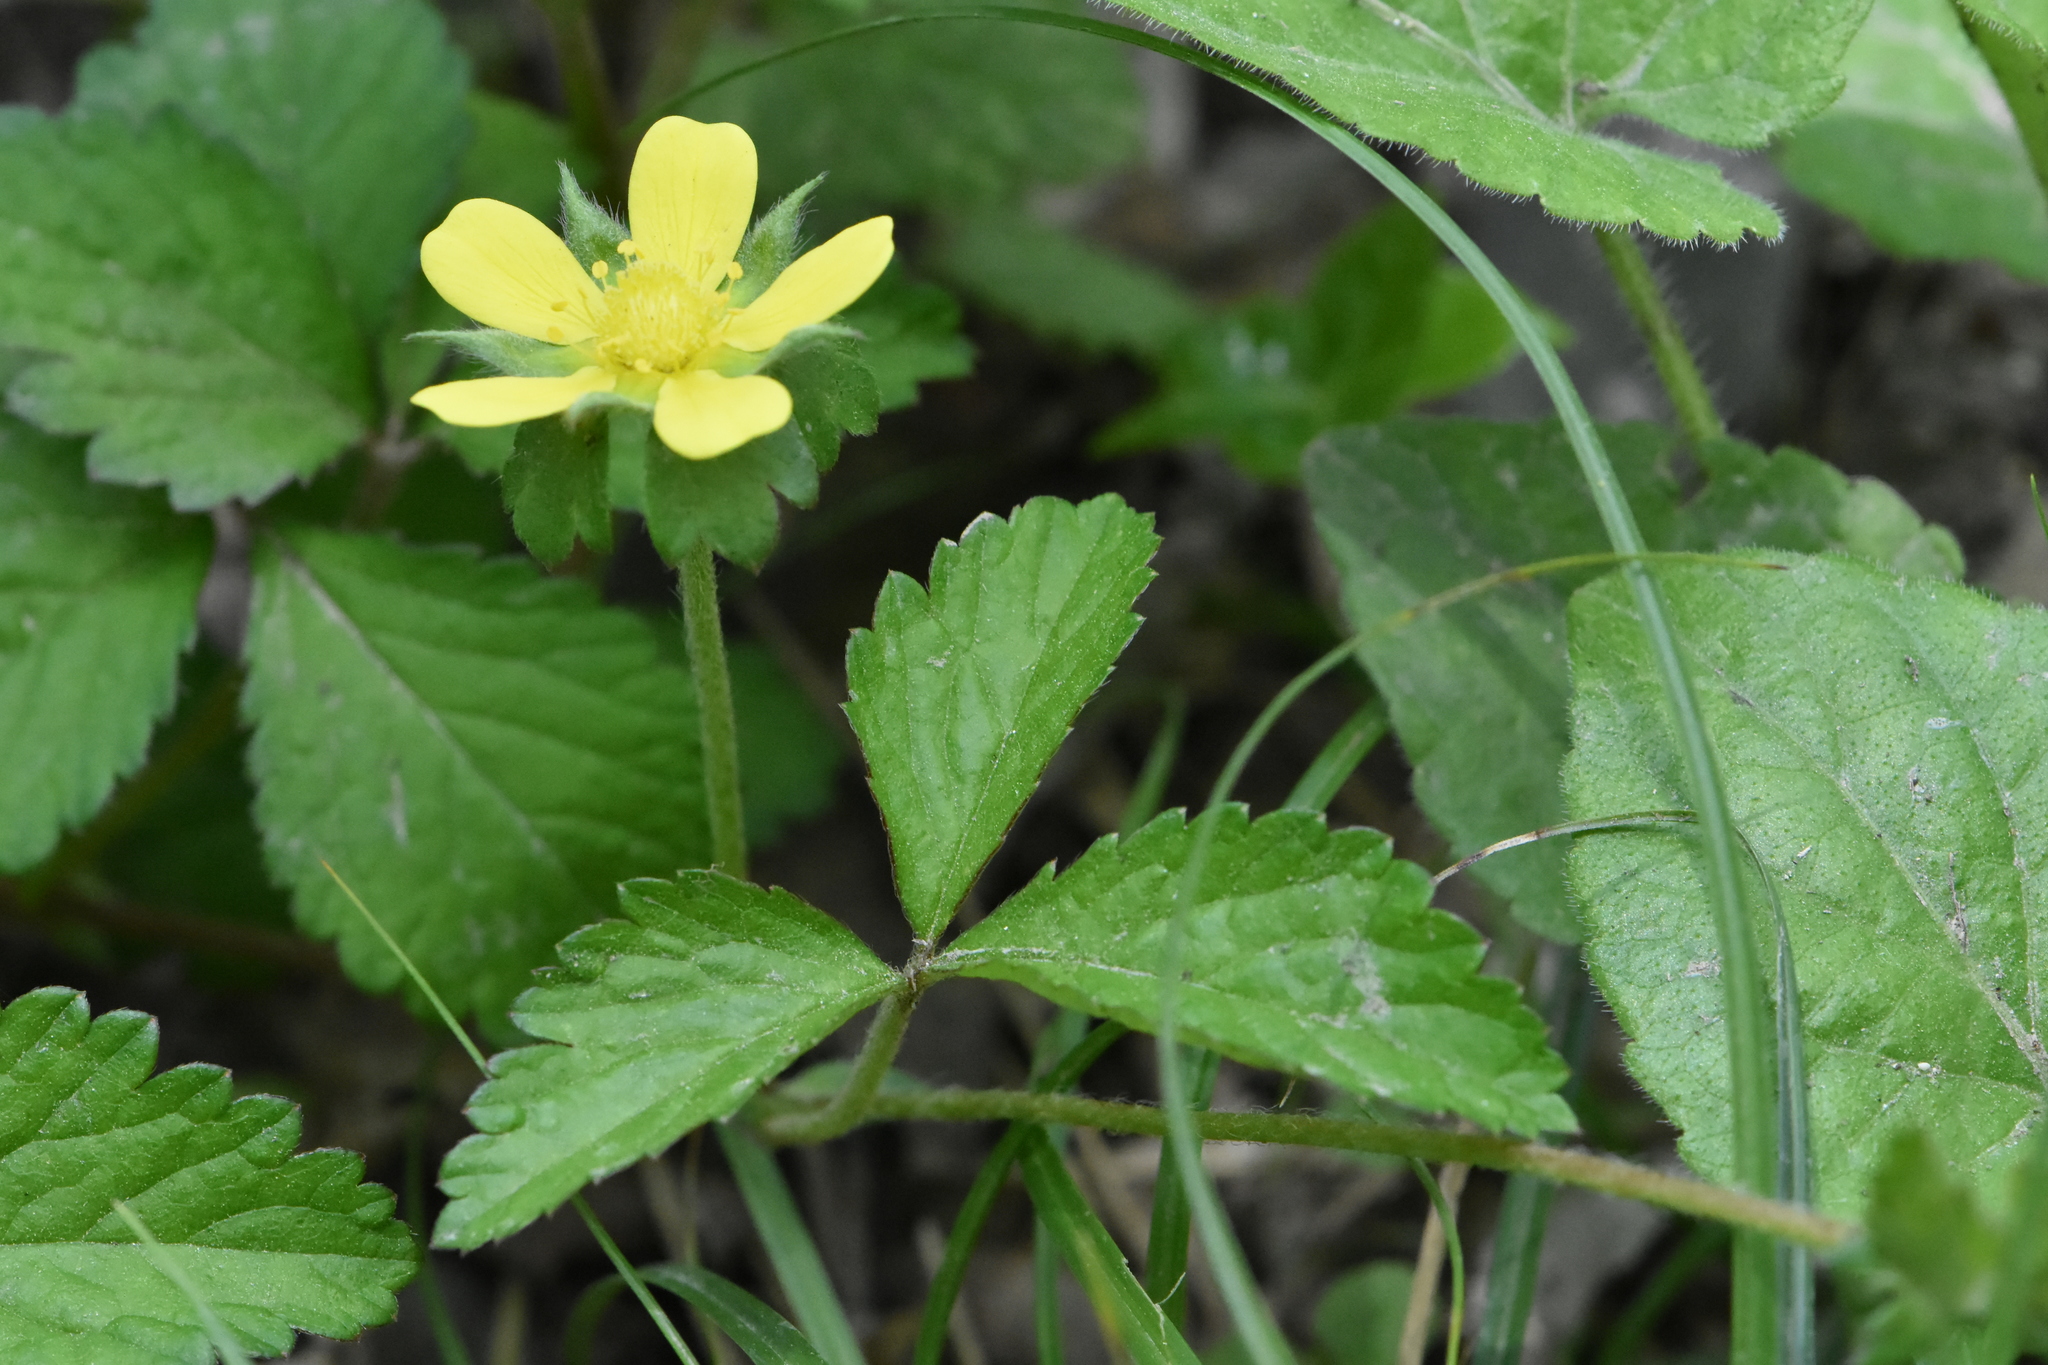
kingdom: Plantae
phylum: Tracheophyta
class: Magnoliopsida
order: Rosales
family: Rosaceae
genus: Potentilla
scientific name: Potentilla indica
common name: Yellow-flowered strawberry
